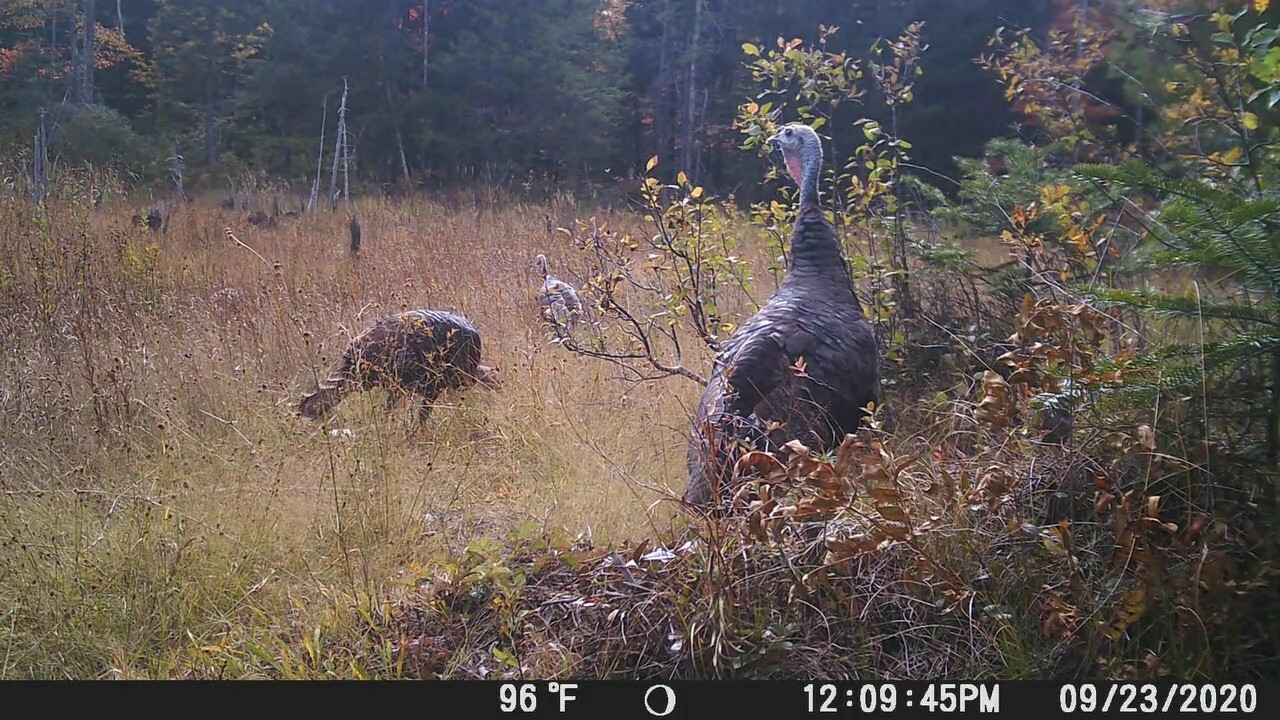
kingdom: Animalia
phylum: Chordata
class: Aves
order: Galliformes
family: Phasianidae
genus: Meleagris
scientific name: Meleagris gallopavo
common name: Wild turkey
